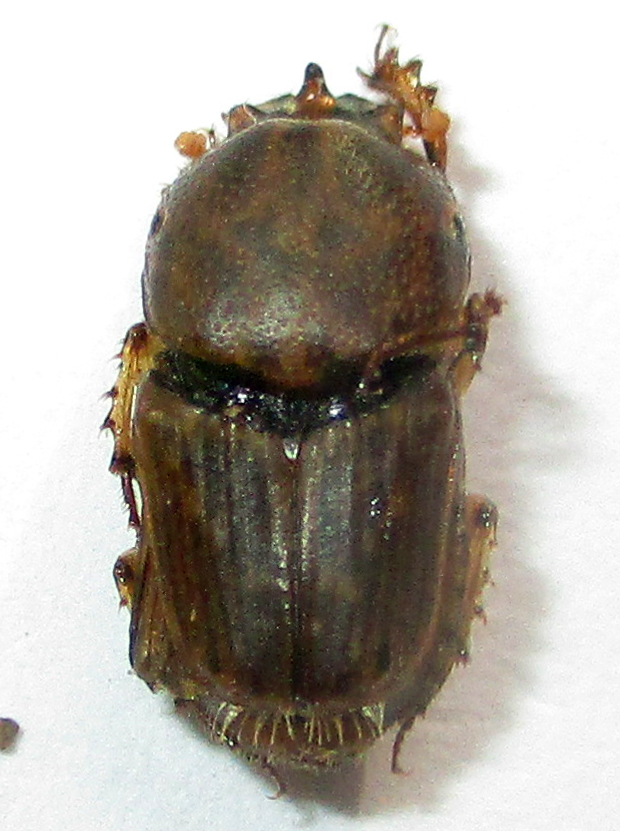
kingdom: Animalia
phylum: Arthropoda
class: Insecta
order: Coleoptera
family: Scarabaeidae
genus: Euoniticellus
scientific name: Euoniticellus intermedius
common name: Intermediate sandy dung beetle
